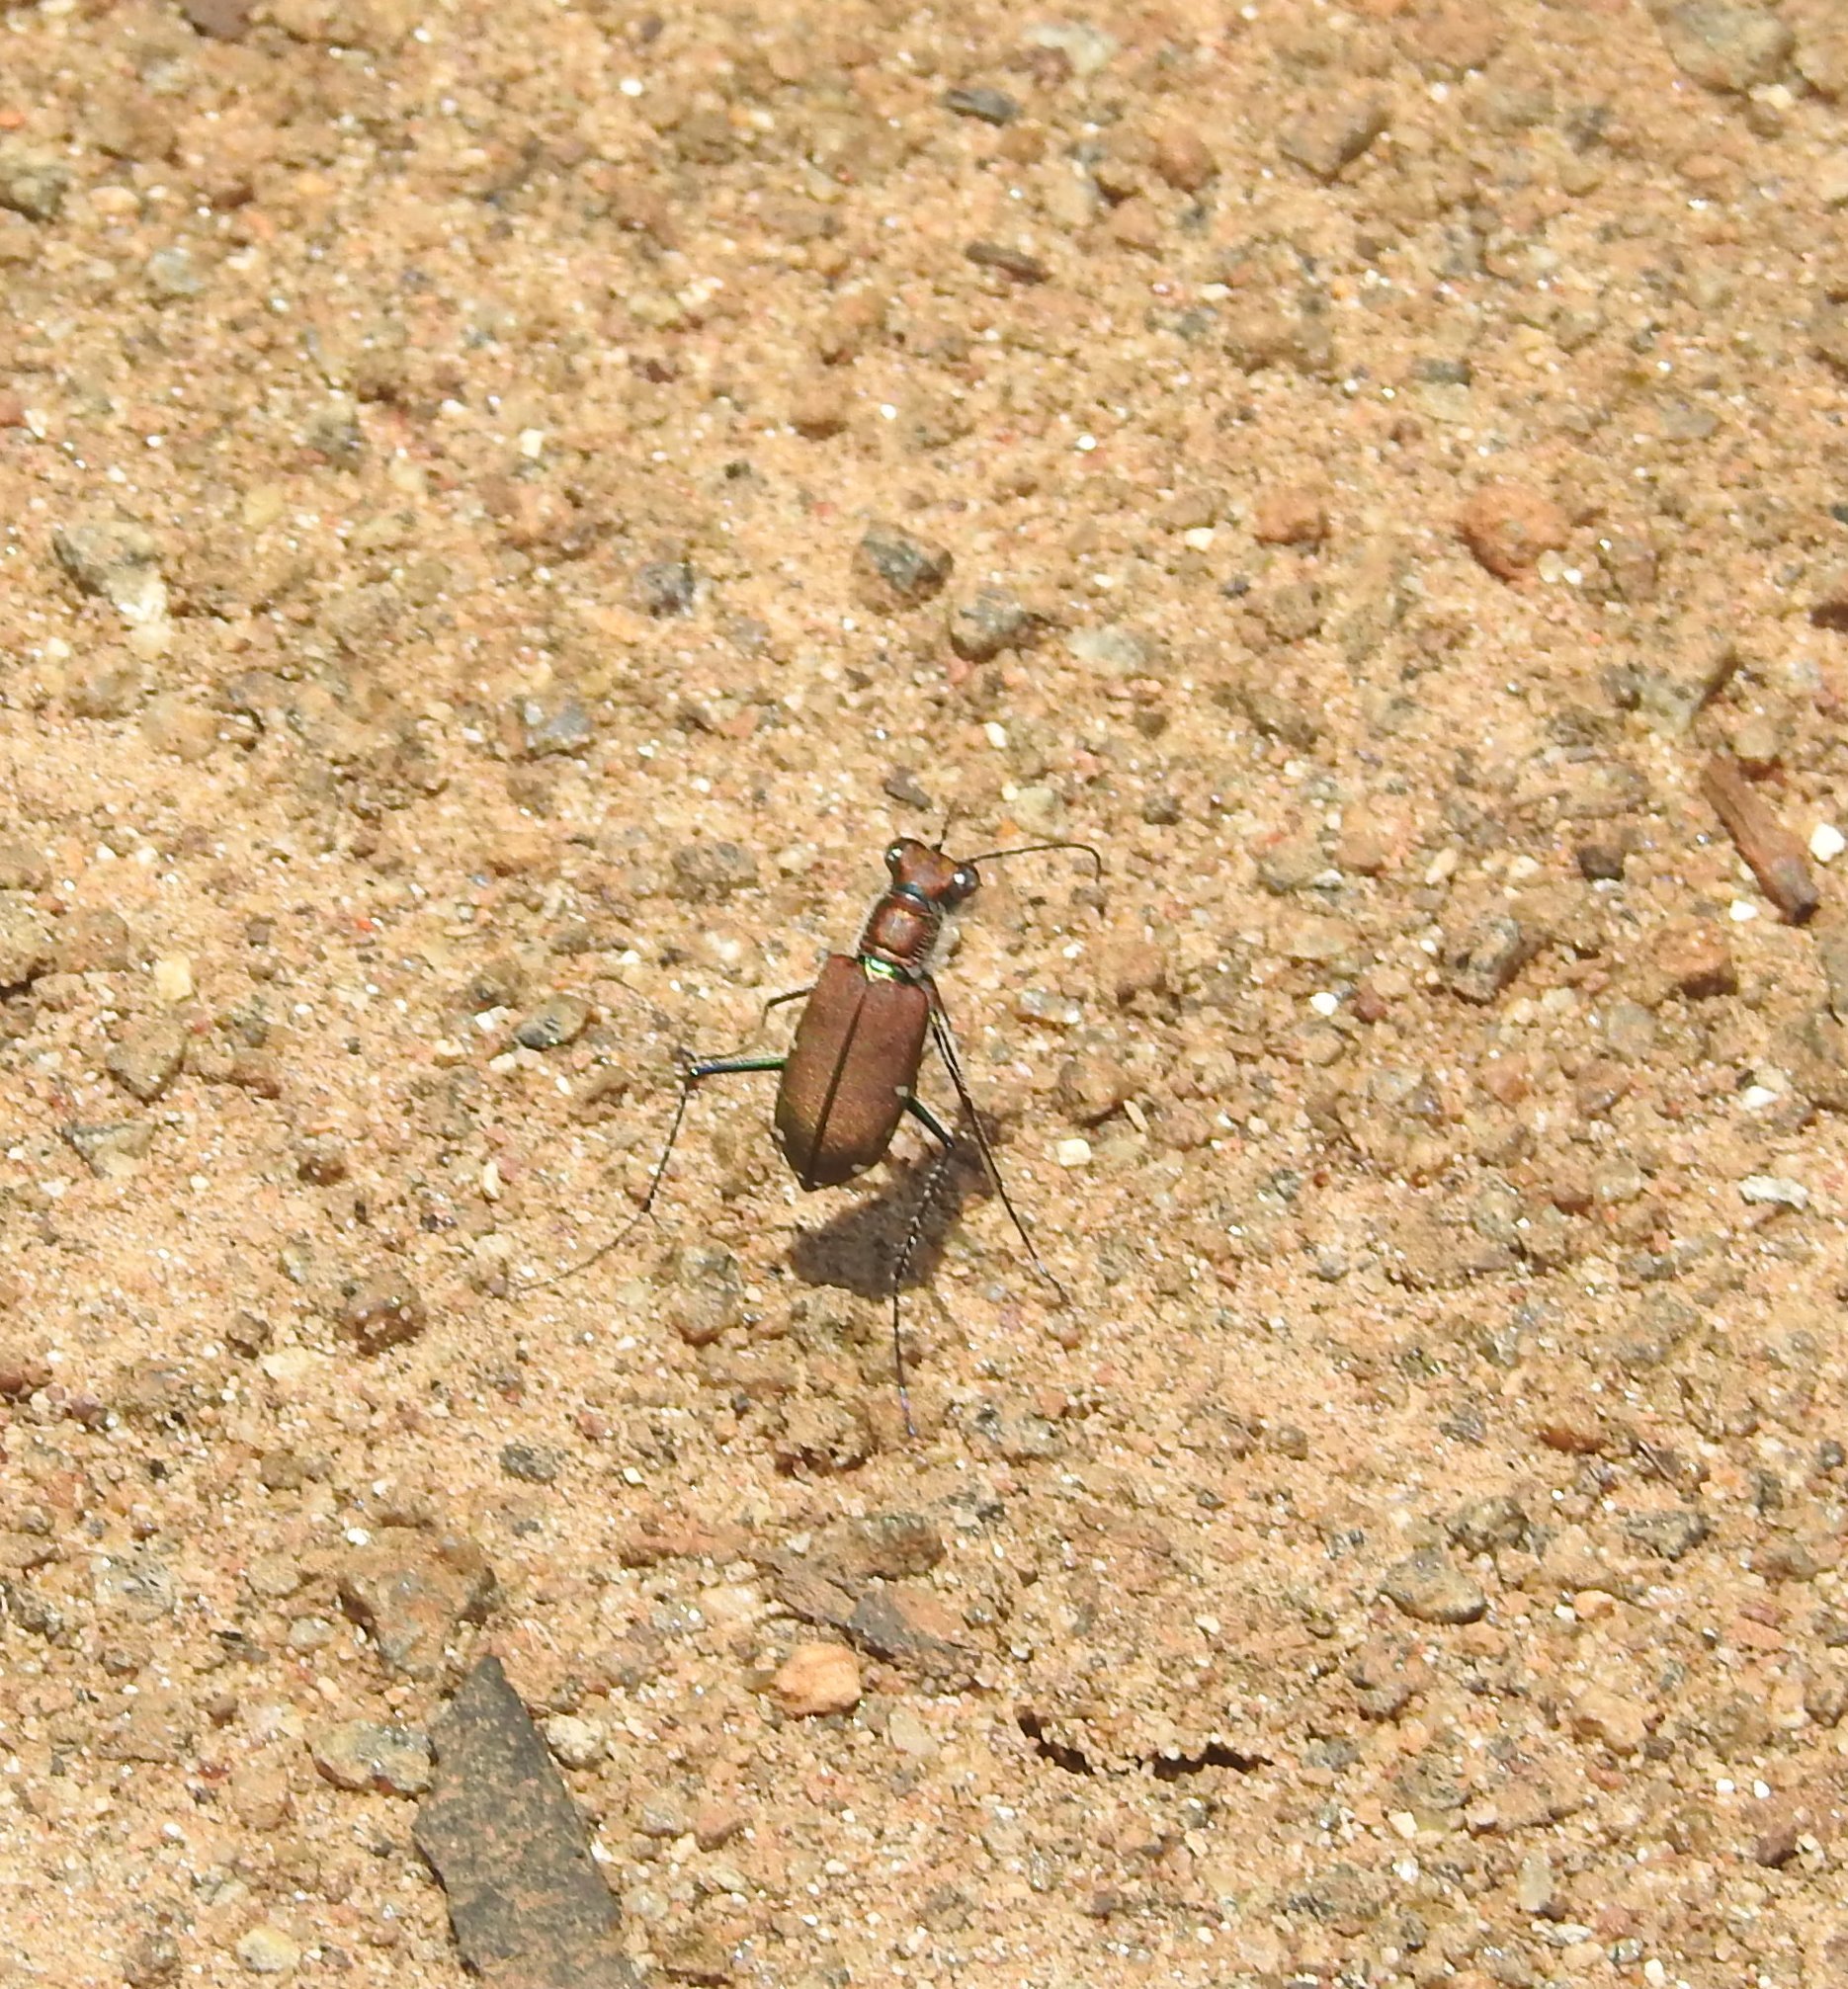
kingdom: Animalia
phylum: Arthropoda
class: Insecta
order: Coleoptera
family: Carabidae
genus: Cicindela
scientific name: Cicindela funerea
